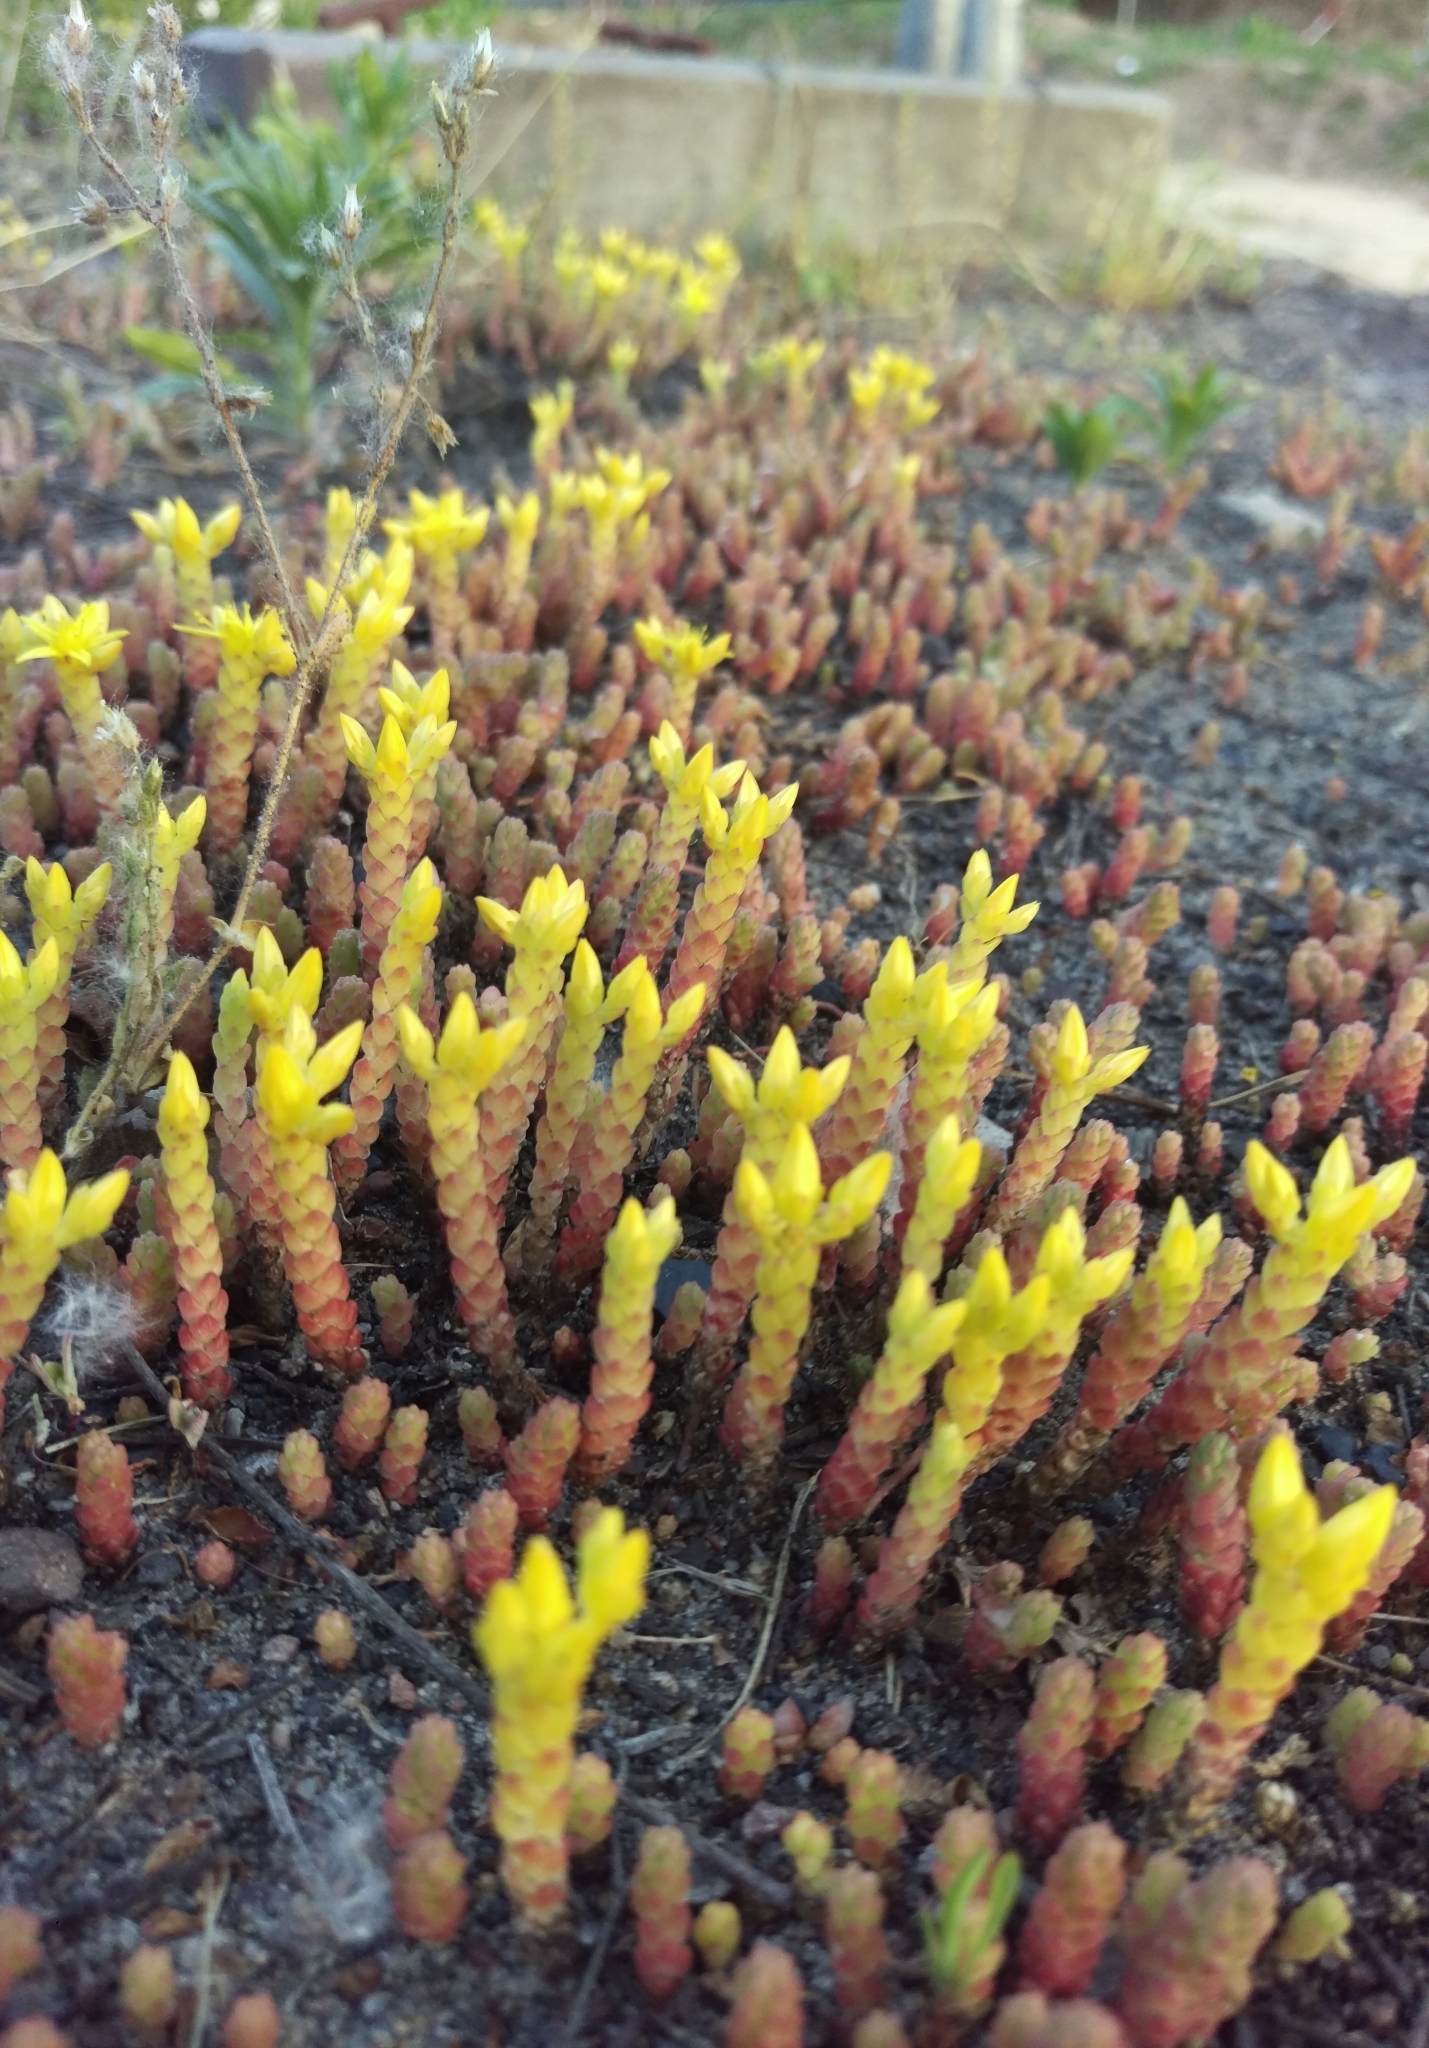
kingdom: Plantae
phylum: Tracheophyta
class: Magnoliopsida
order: Saxifragales
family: Crassulaceae
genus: Sedum
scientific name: Sedum acre
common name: Biting stonecrop
